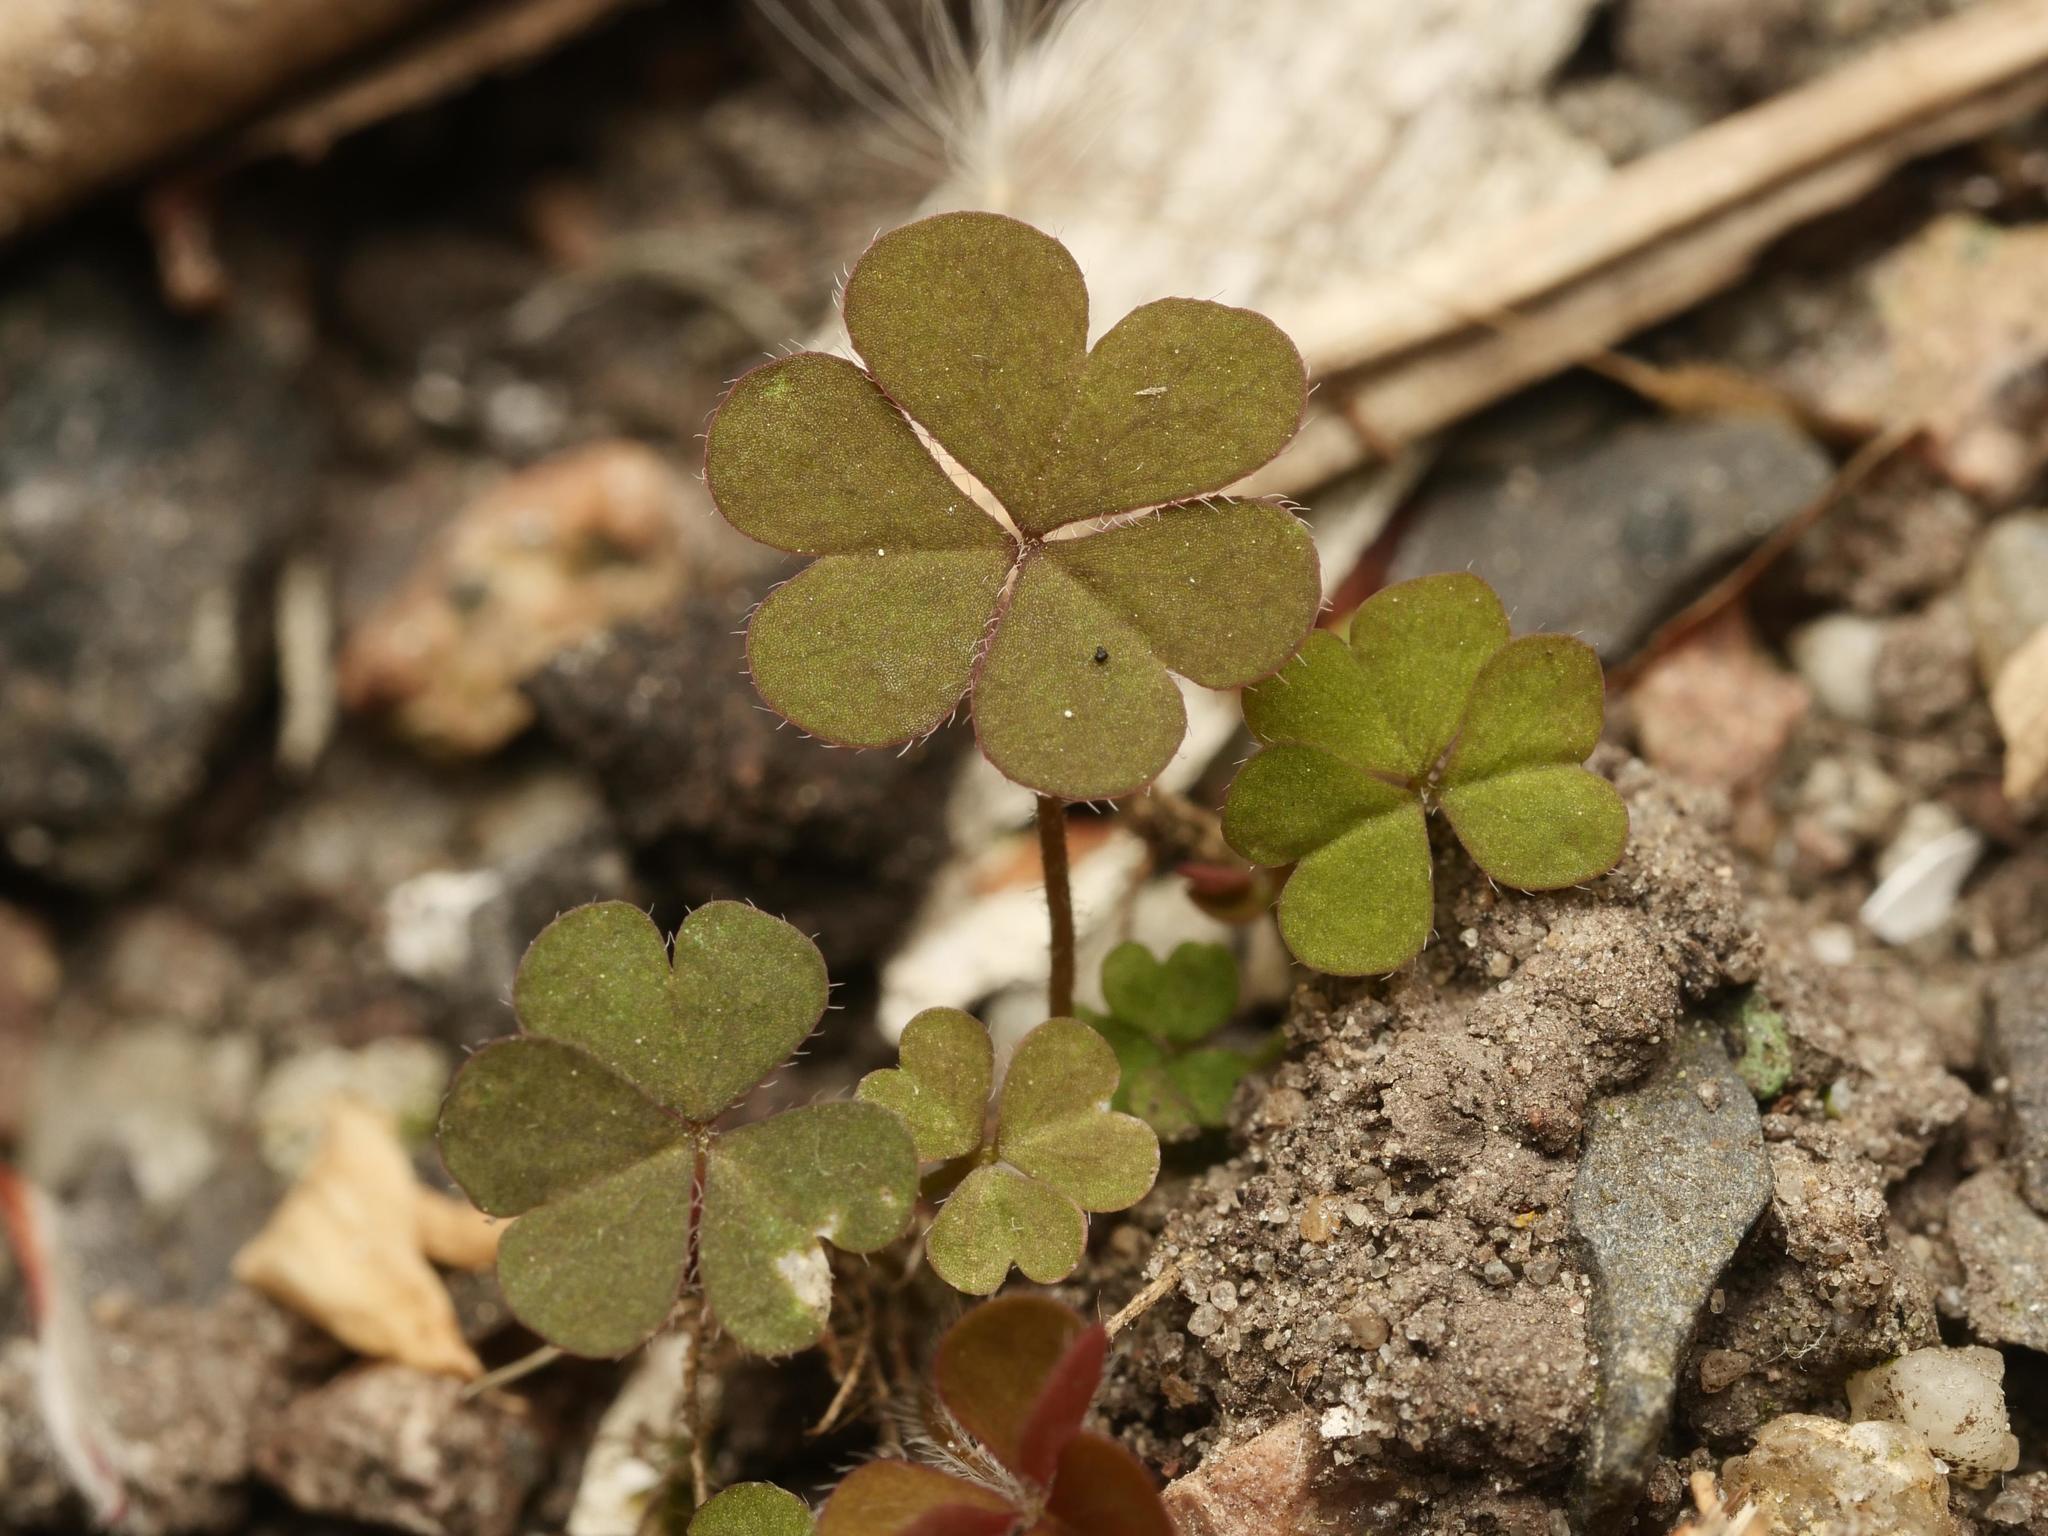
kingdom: Plantae
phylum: Tracheophyta
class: Magnoliopsida
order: Oxalidales
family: Oxalidaceae
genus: Oxalis
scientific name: Oxalis corniculata
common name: Procumbent yellow-sorrel
